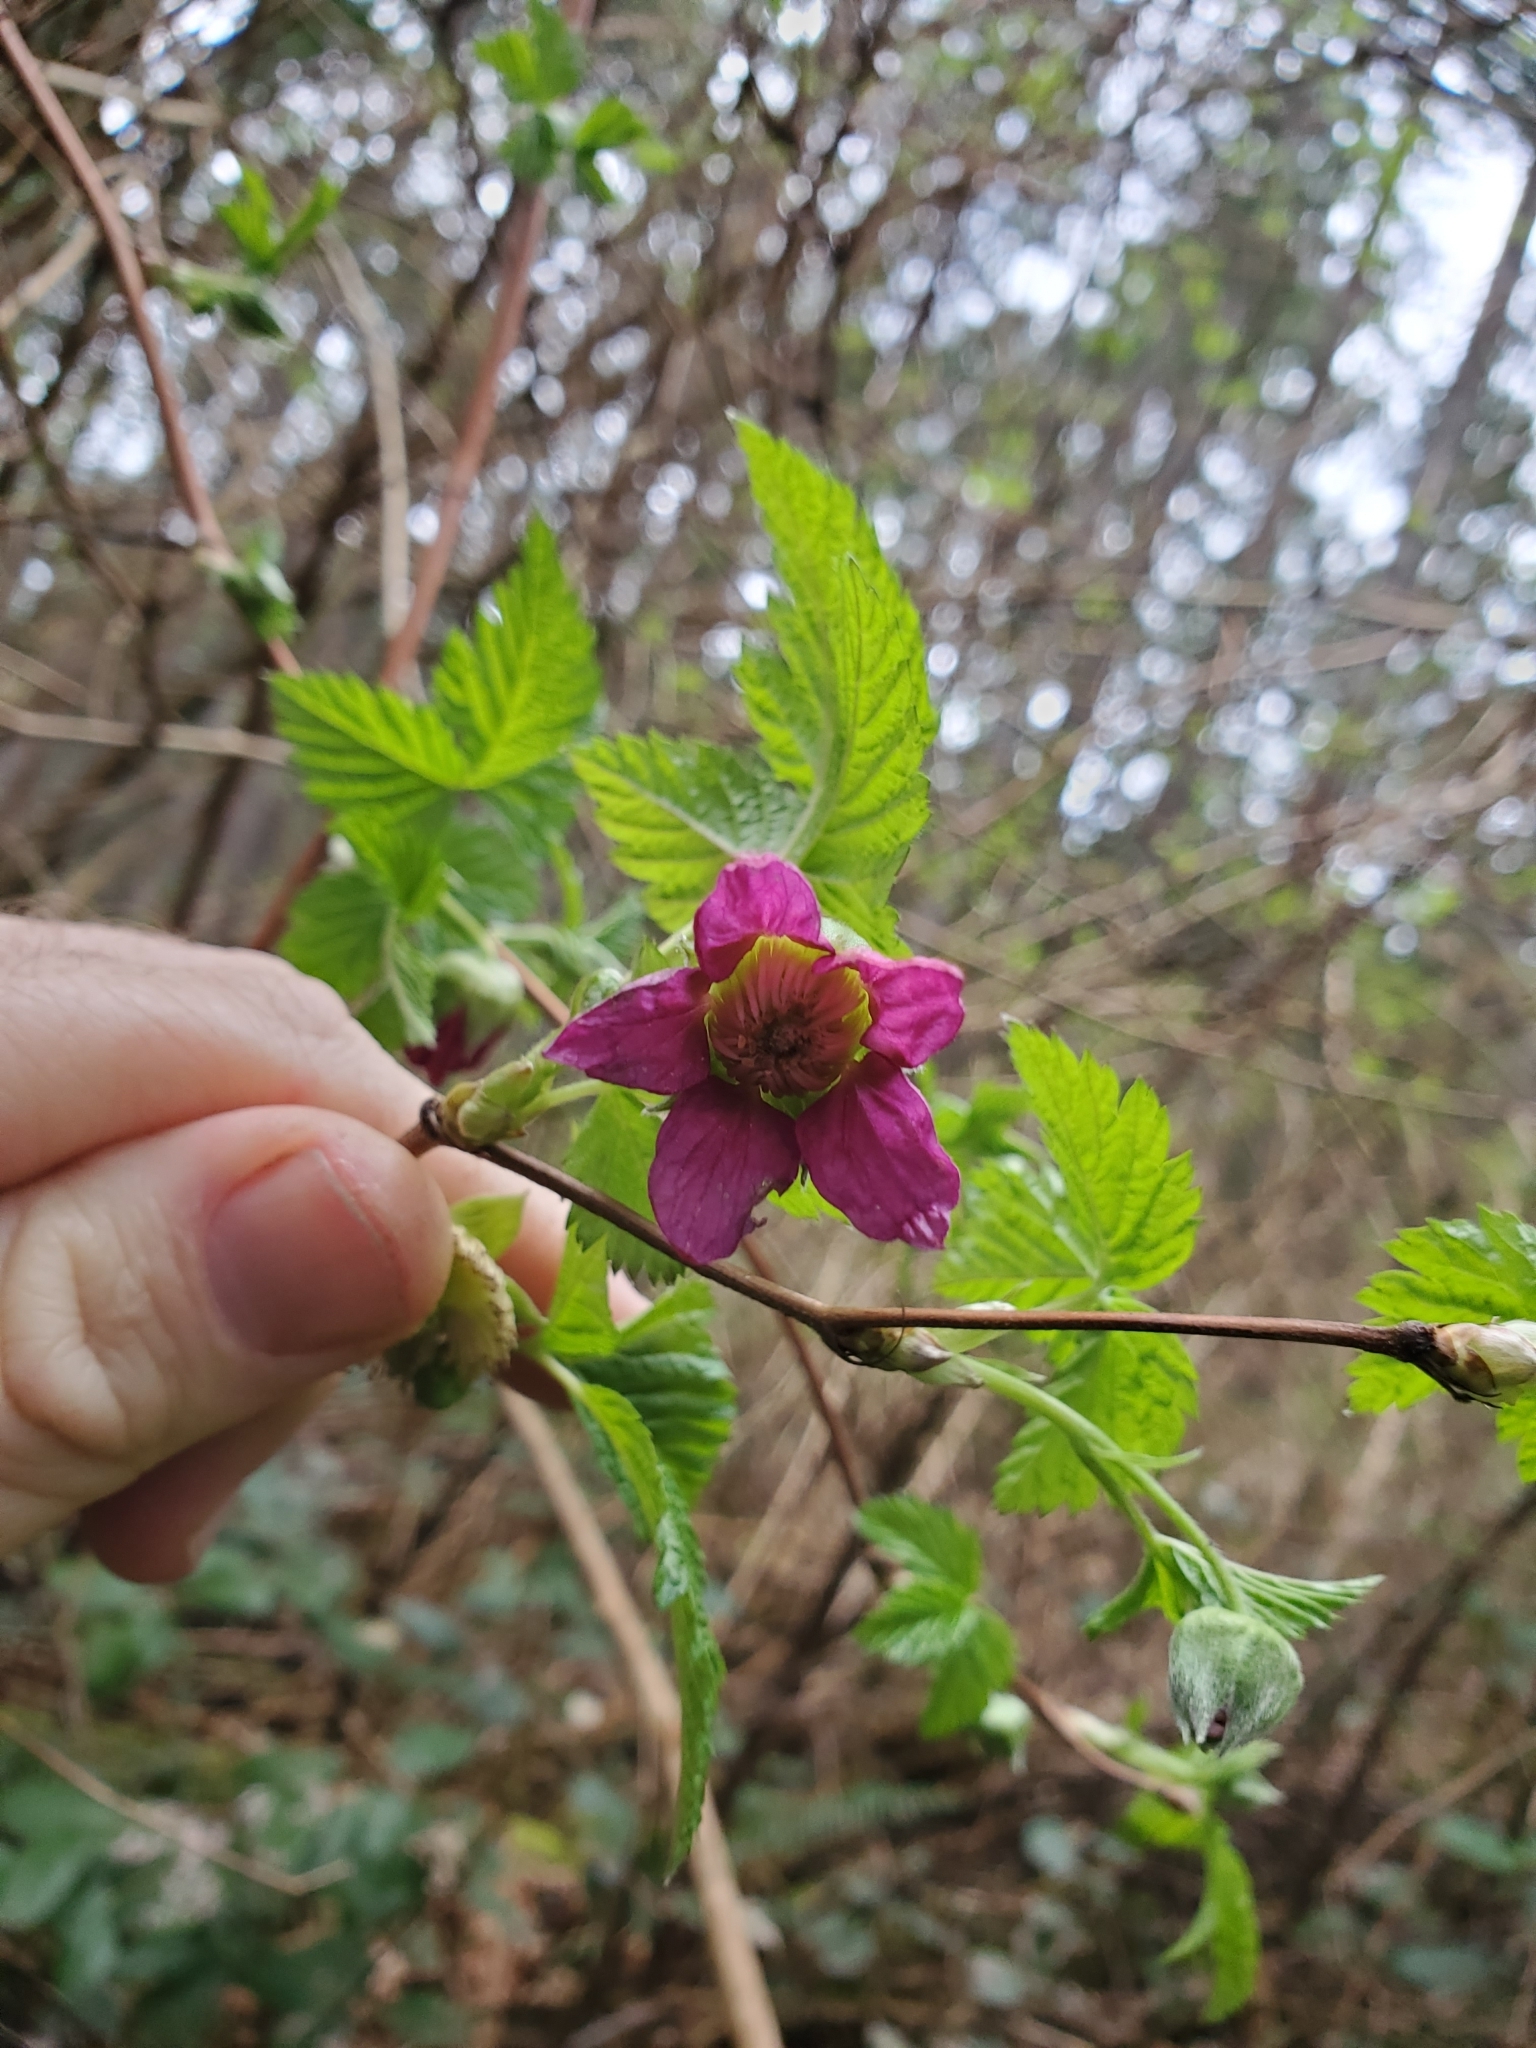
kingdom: Plantae
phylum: Tracheophyta
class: Magnoliopsida
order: Rosales
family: Rosaceae
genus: Rubus
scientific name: Rubus spectabilis
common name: Salmonberry
